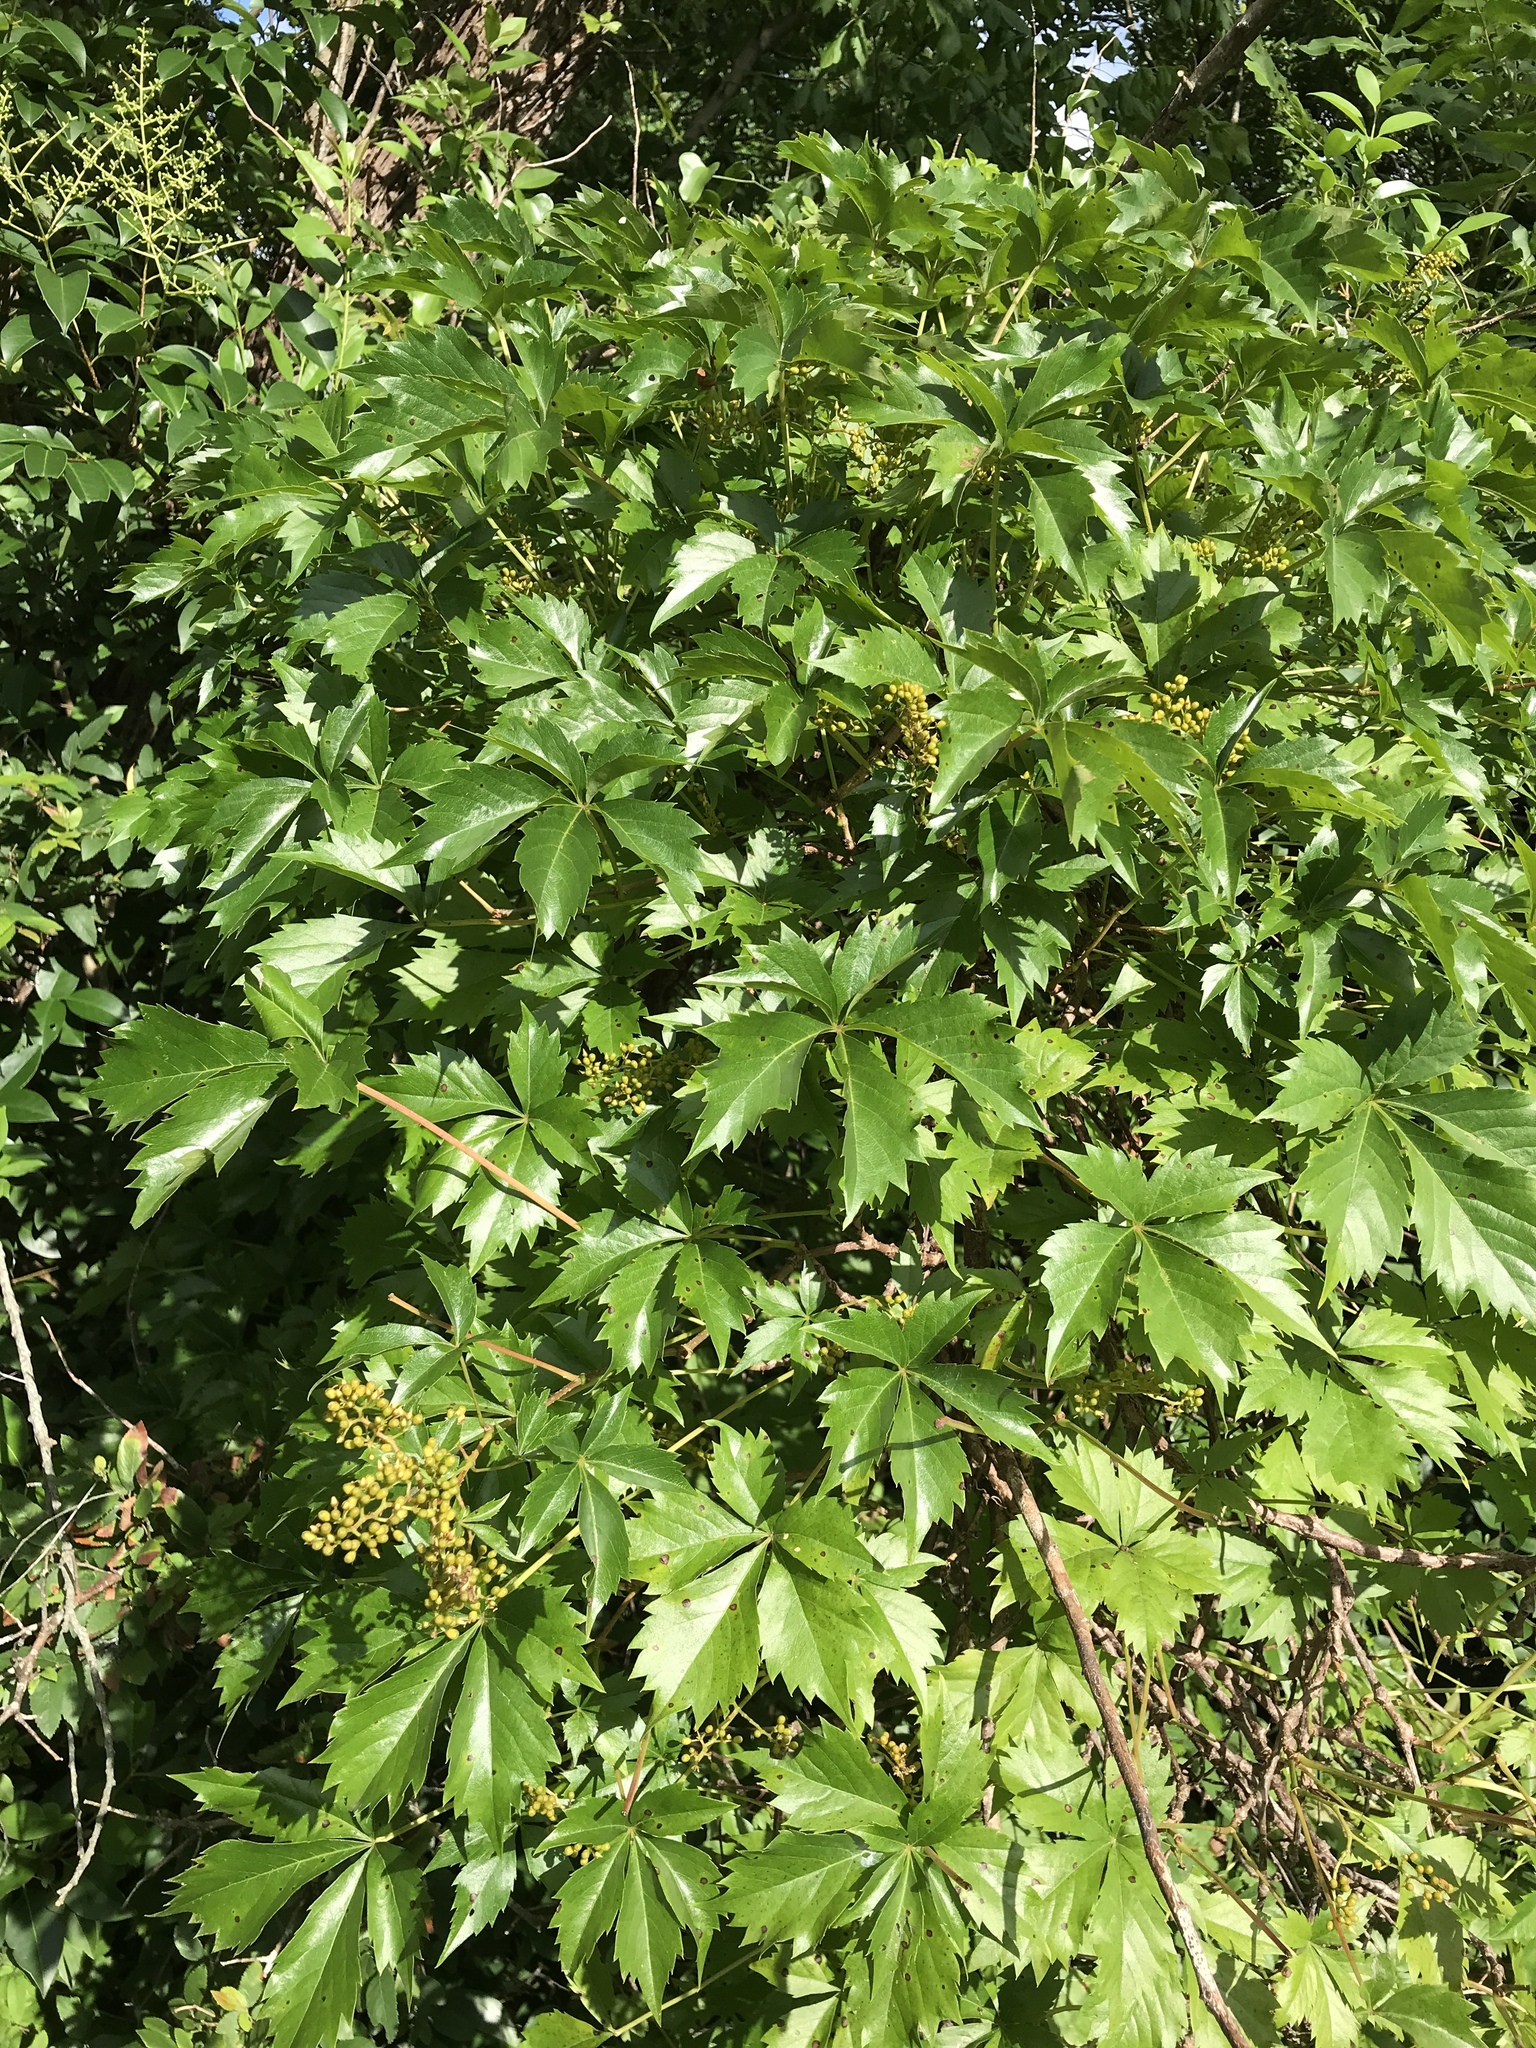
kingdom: Plantae
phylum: Tracheophyta
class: Magnoliopsida
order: Vitales
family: Vitaceae
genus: Parthenocissus
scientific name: Parthenocissus quinquefolia
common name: Virginia-creeper
